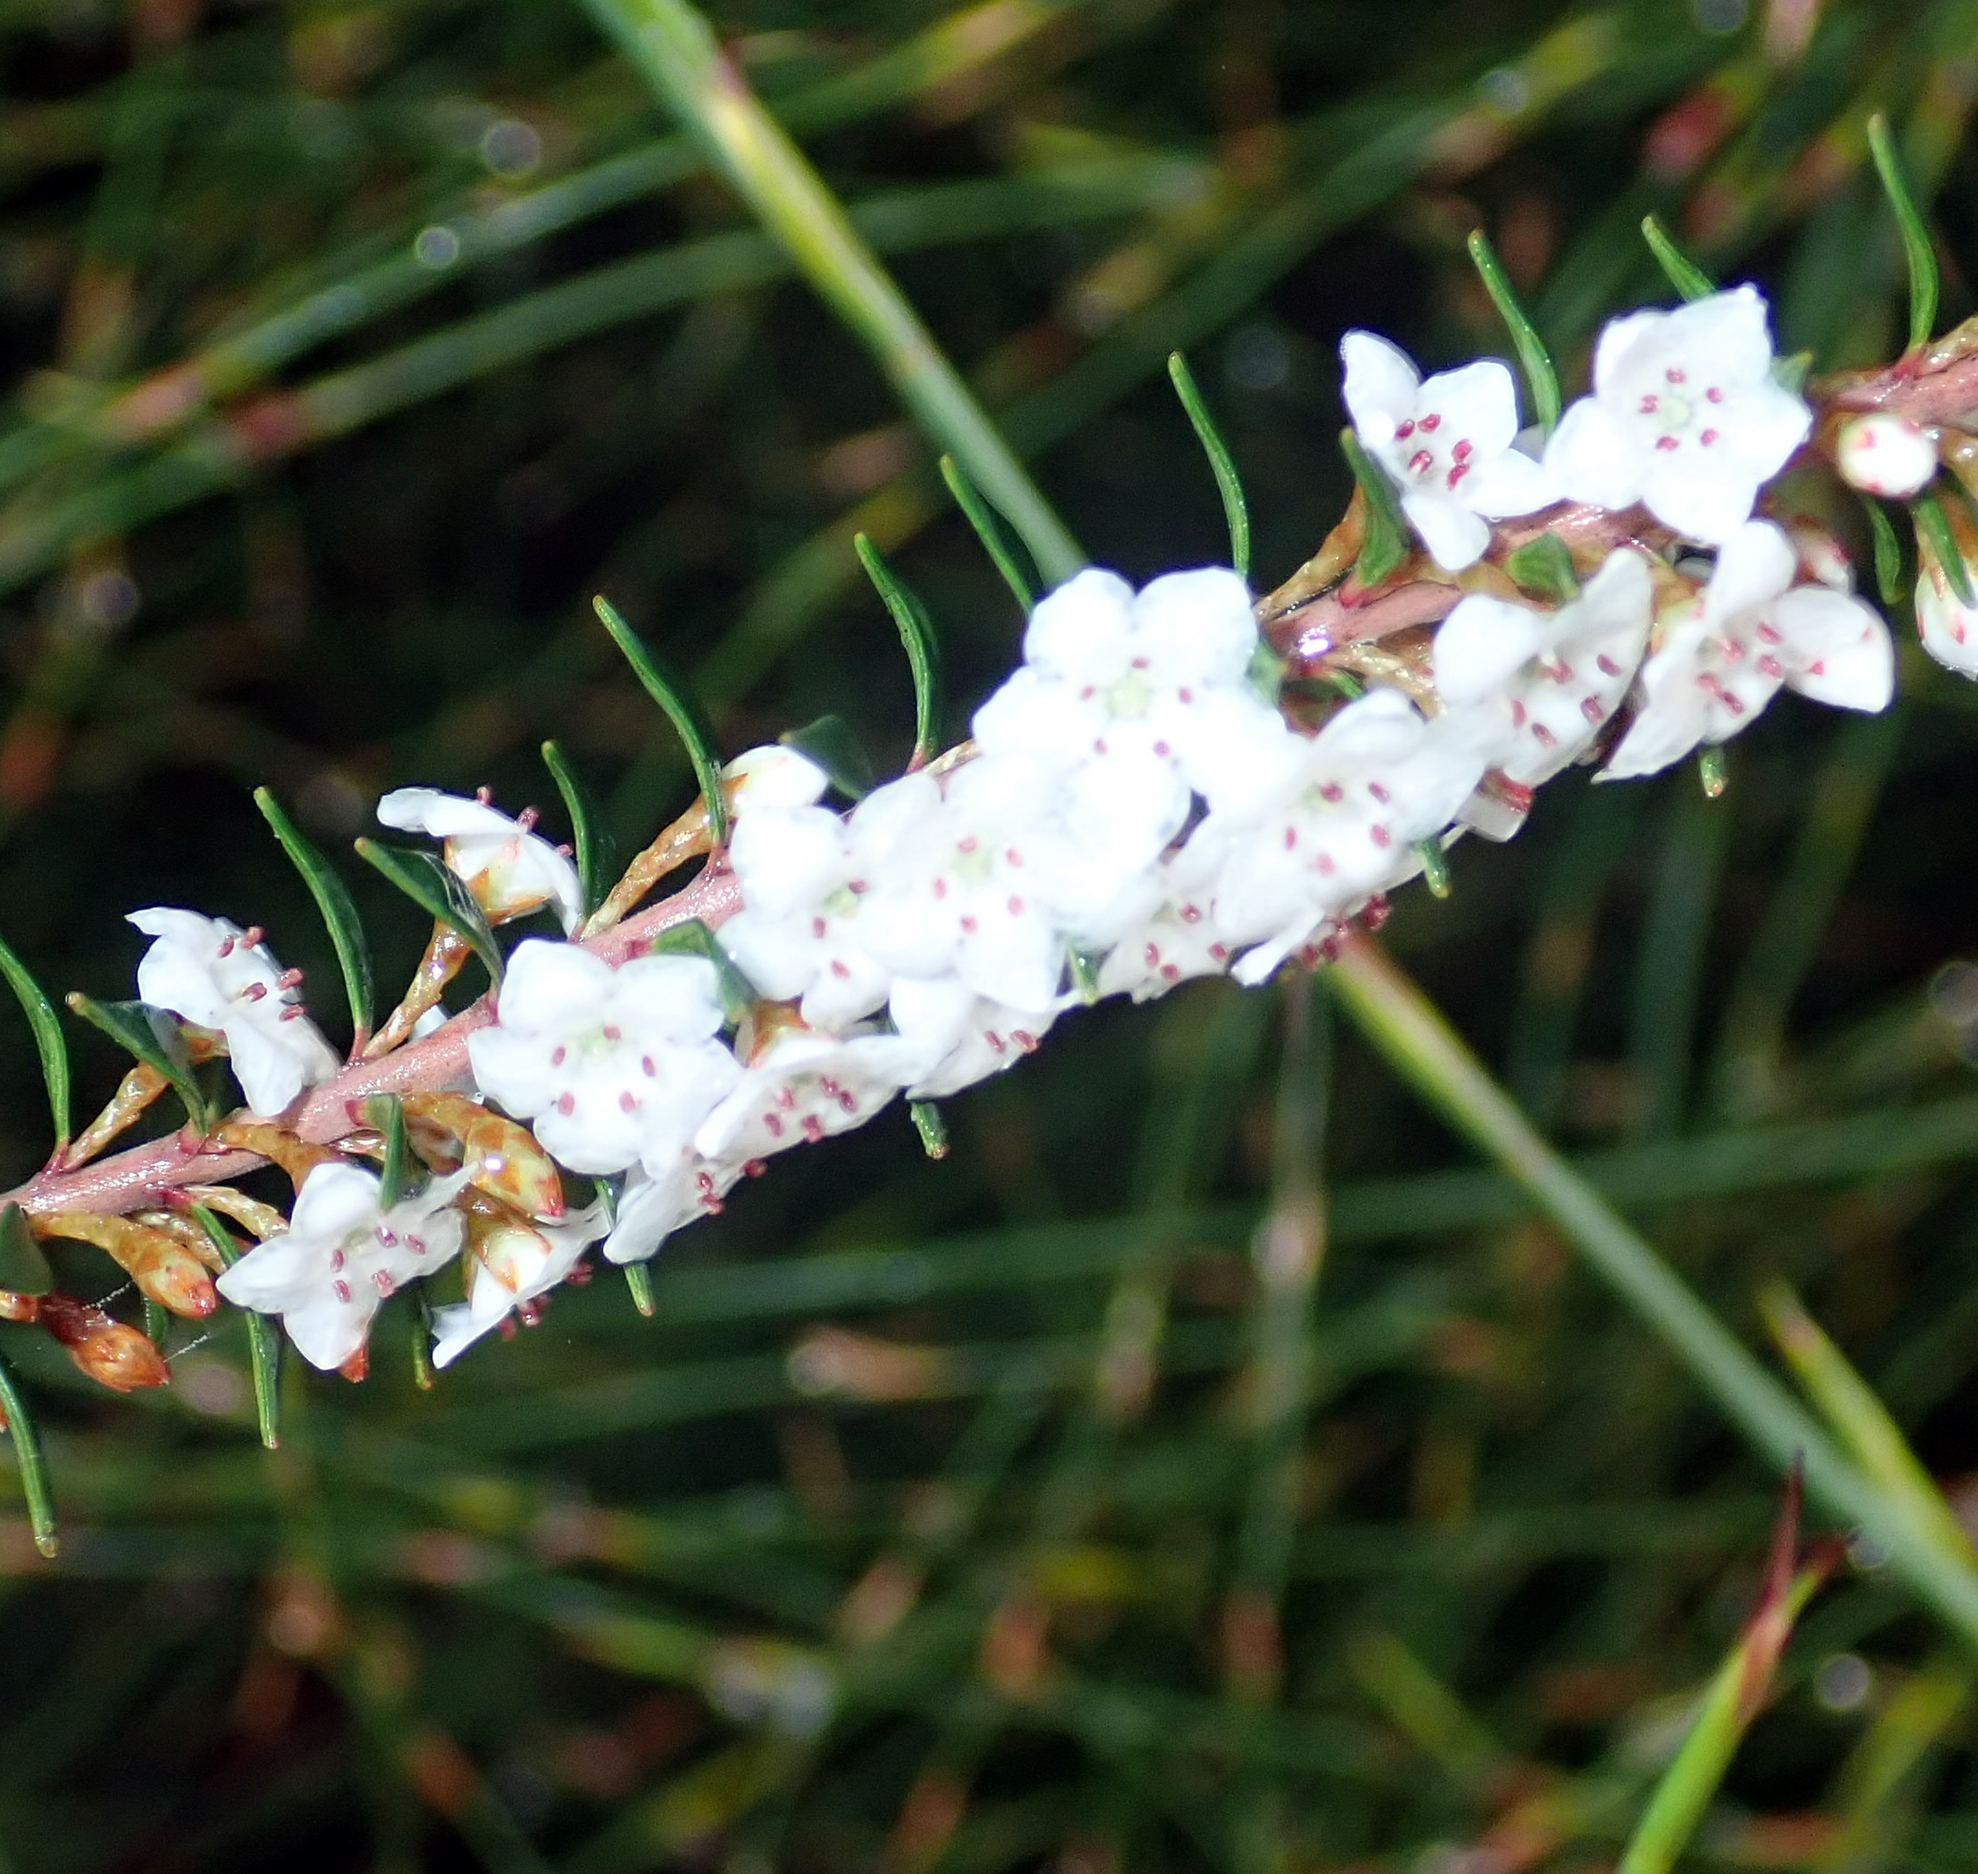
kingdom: Plantae
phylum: Tracheophyta
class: Magnoliopsida
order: Ericales
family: Ericaceae
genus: Epacris
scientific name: Epacris pauciflora
